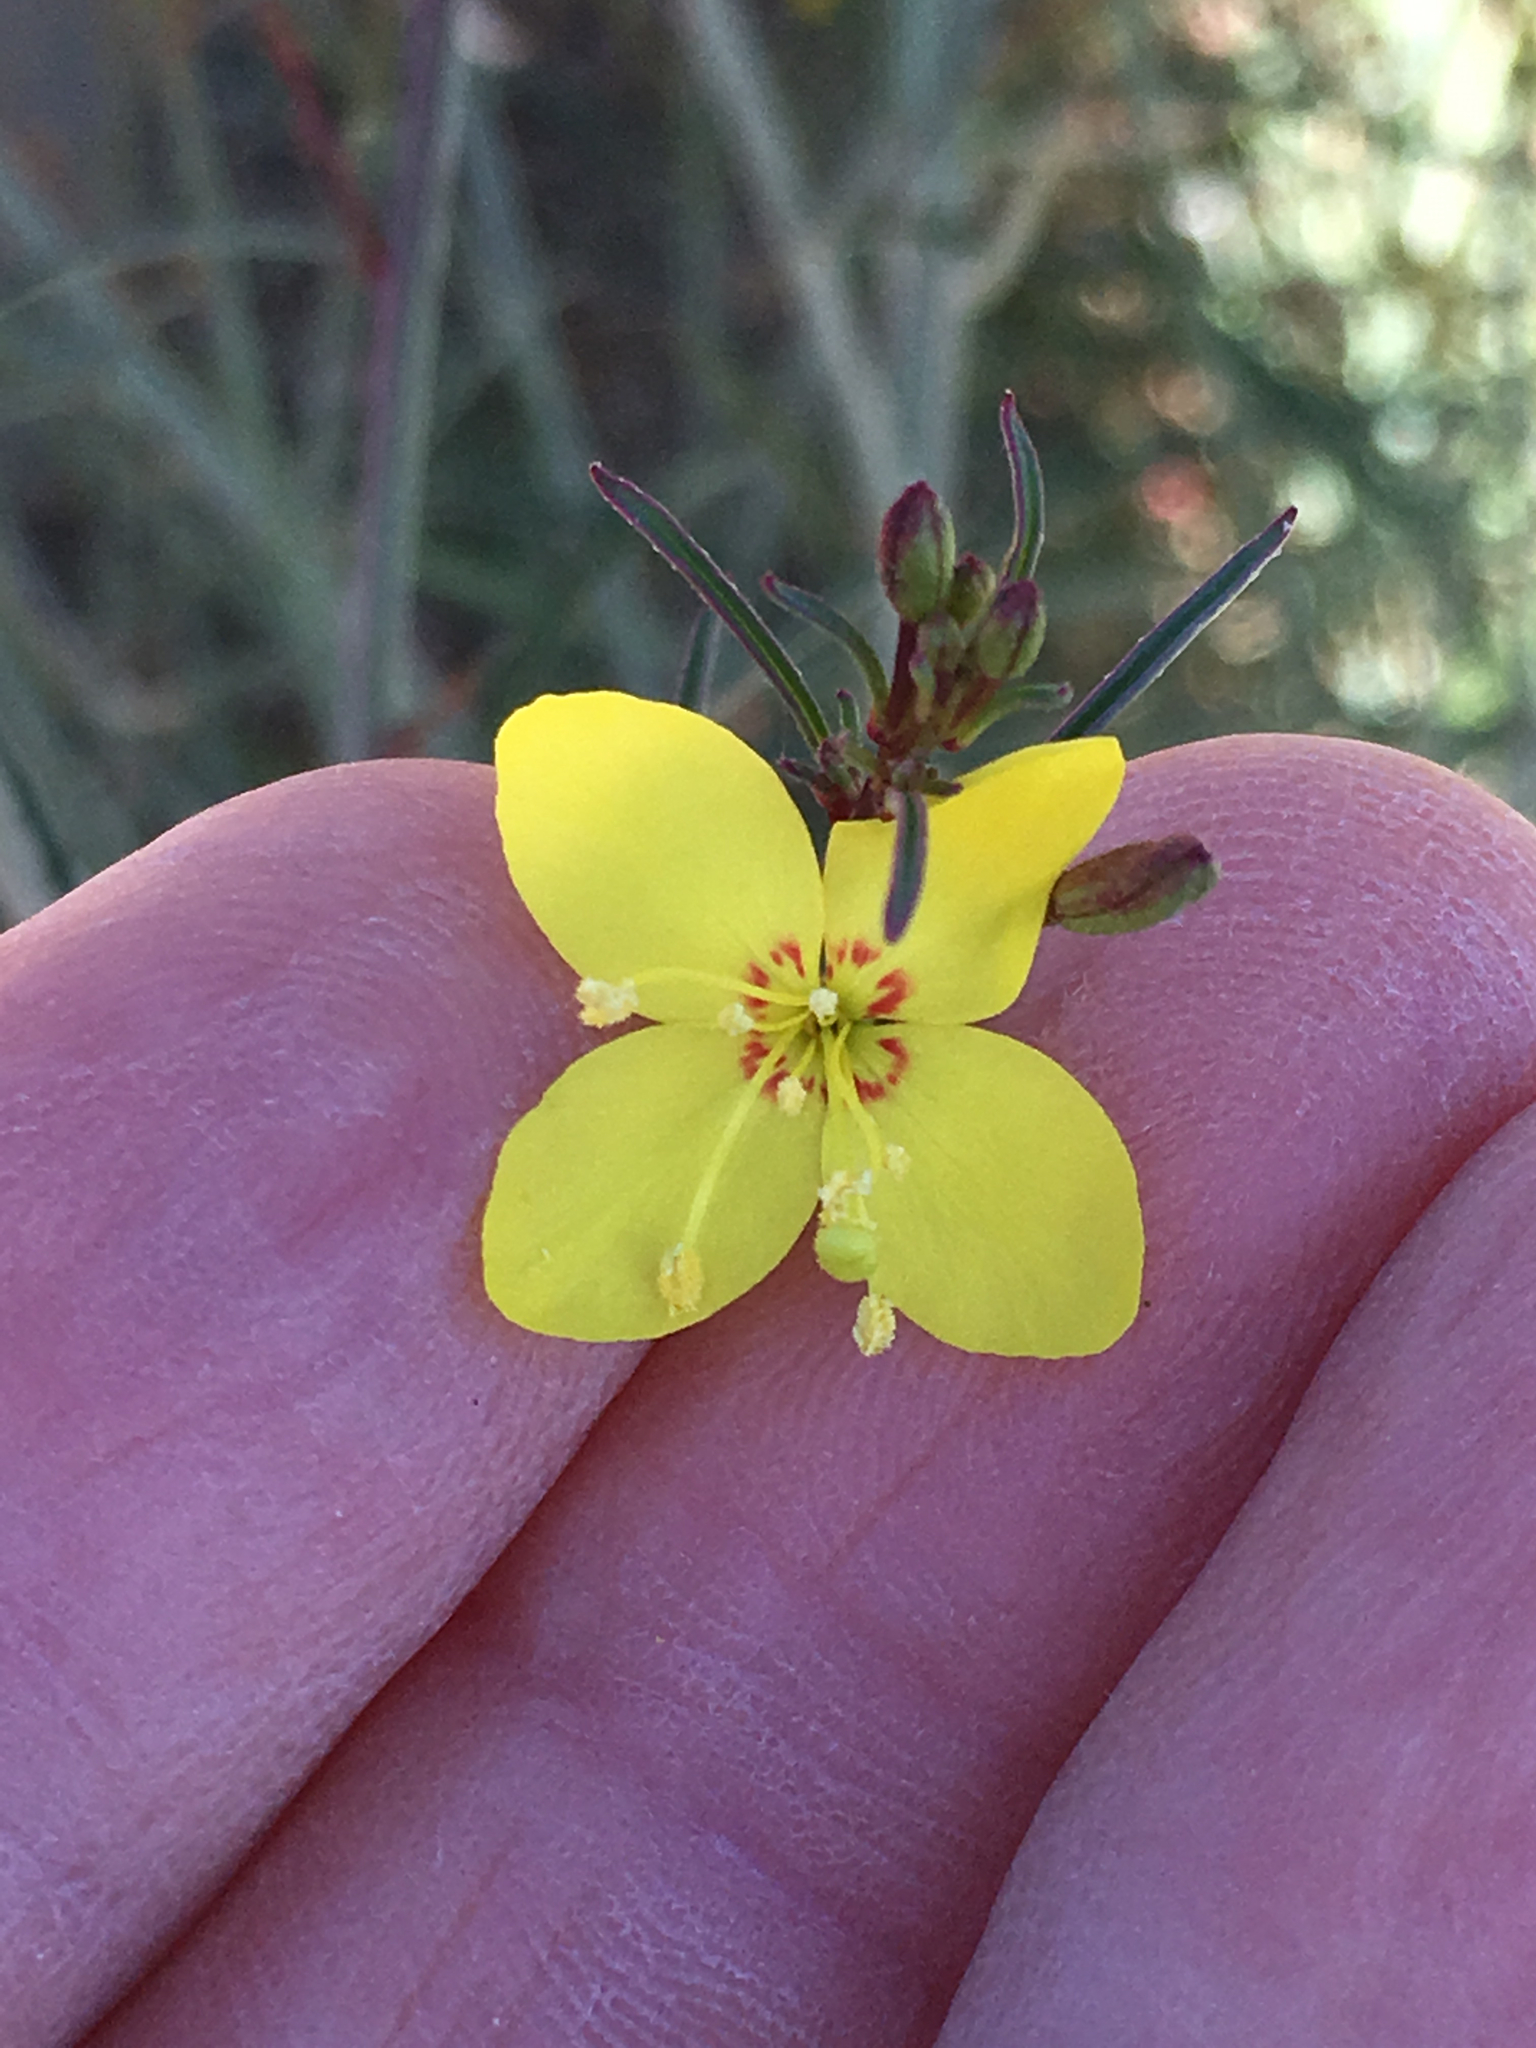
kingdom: Plantae
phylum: Tracheophyta
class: Magnoliopsida
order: Myrtales
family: Onagraceae
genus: Eulobus
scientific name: Eulobus californicus
